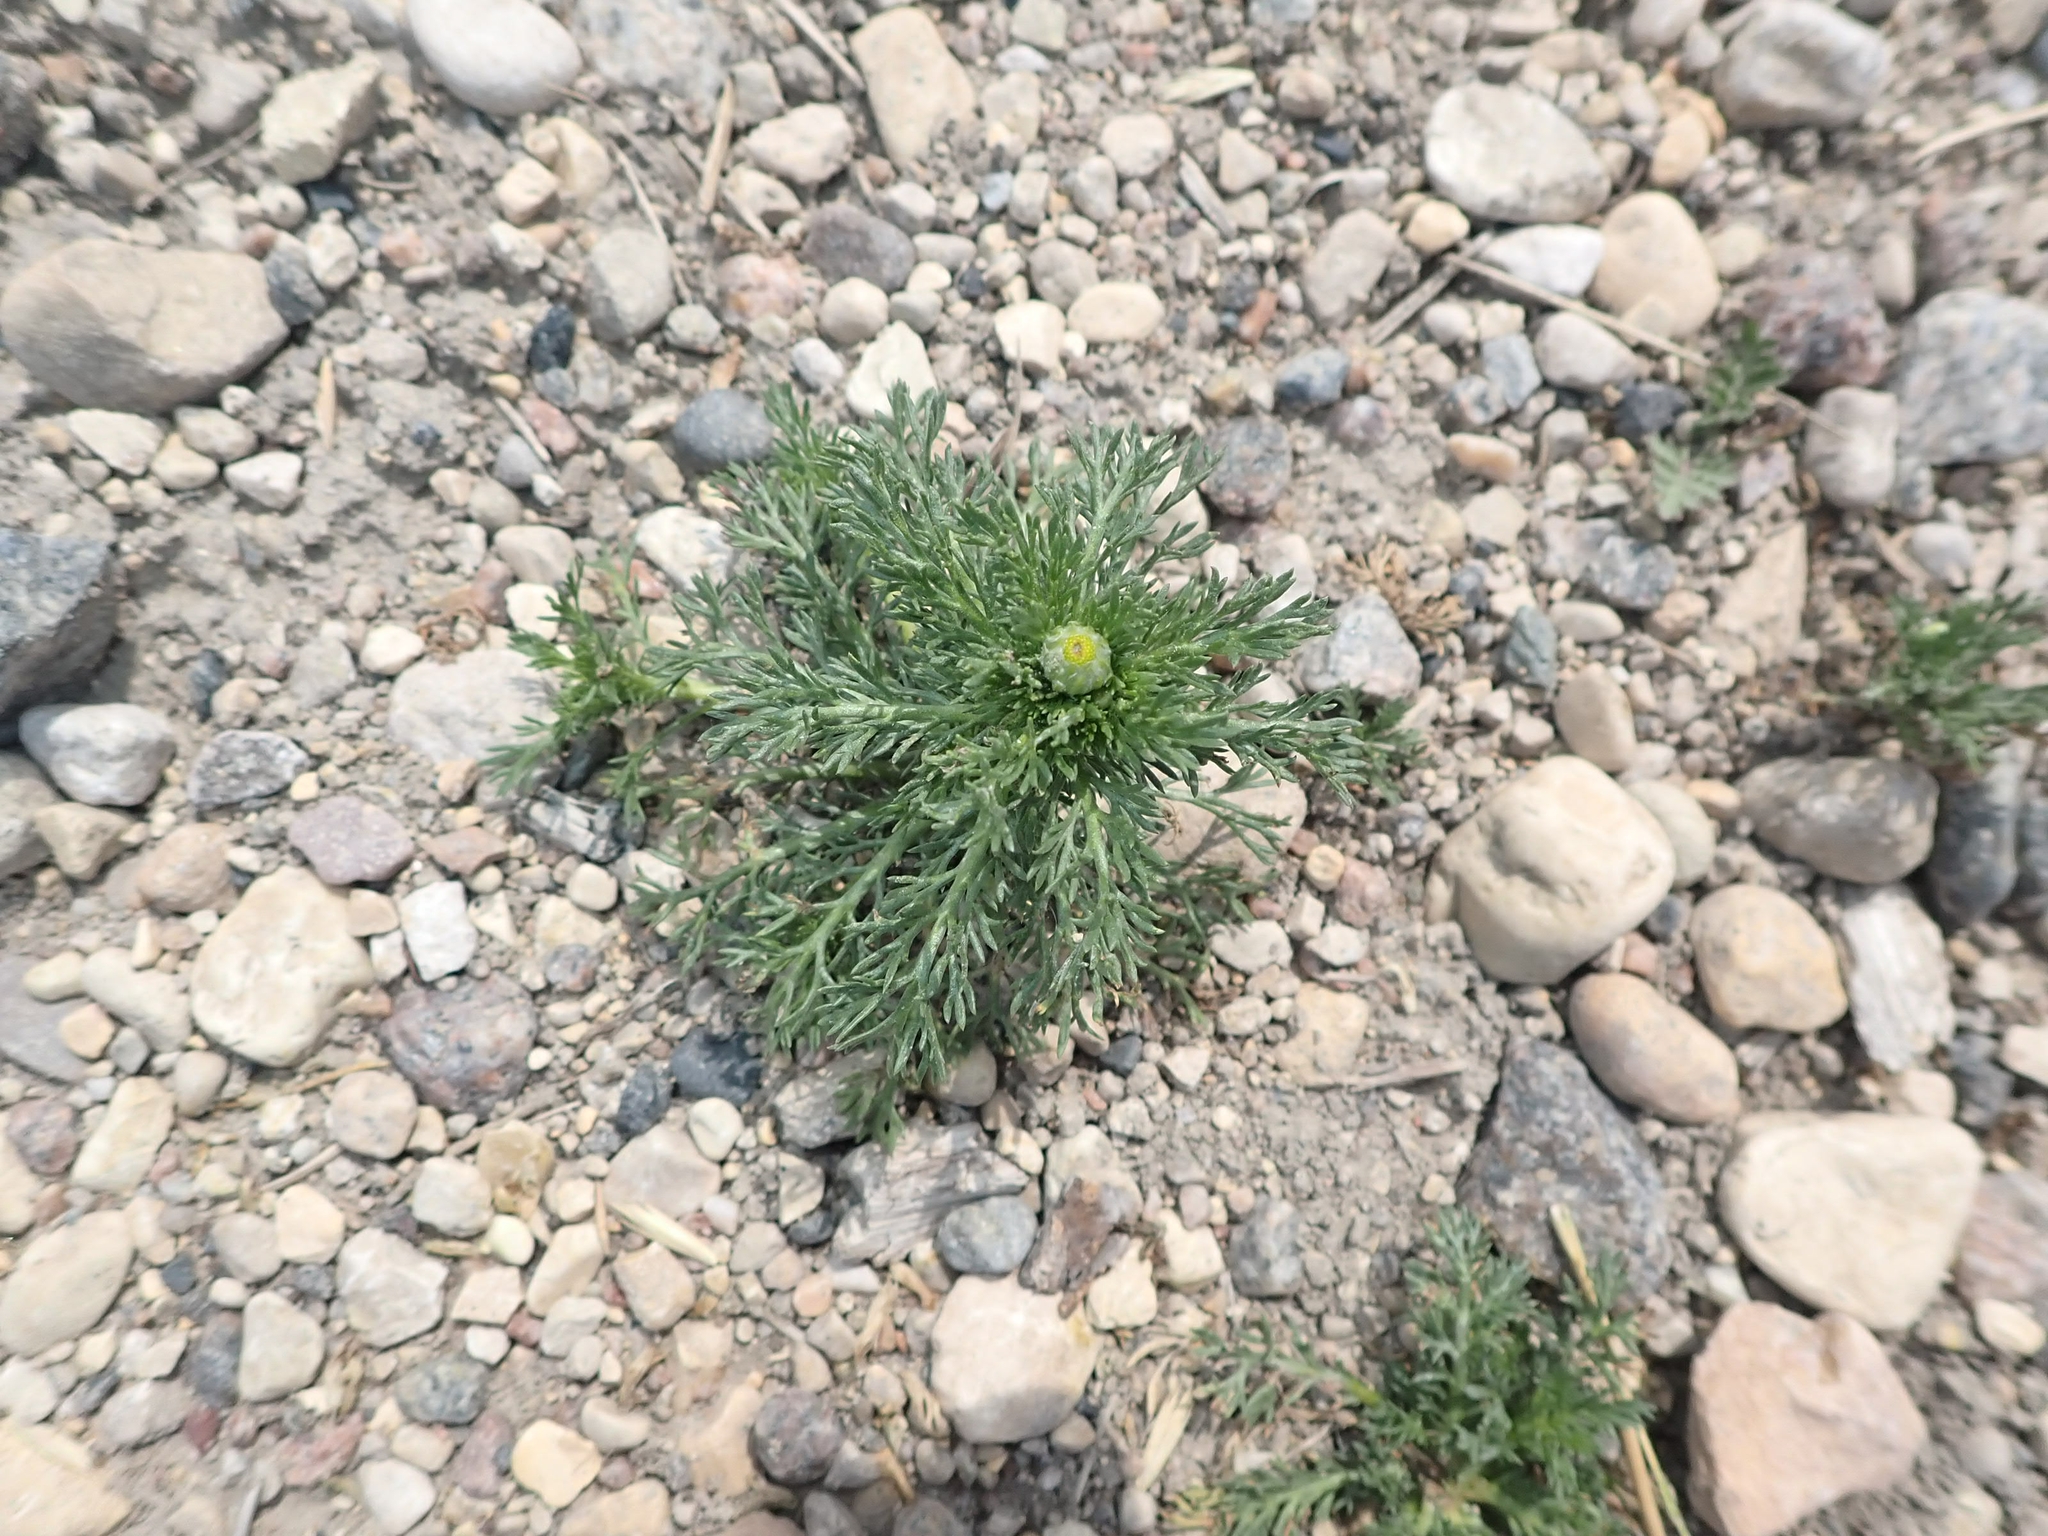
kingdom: Plantae
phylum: Tracheophyta
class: Magnoliopsida
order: Asterales
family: Asteraceae
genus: Matricaria
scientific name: Matricaria discoidea
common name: Disc mayweed
